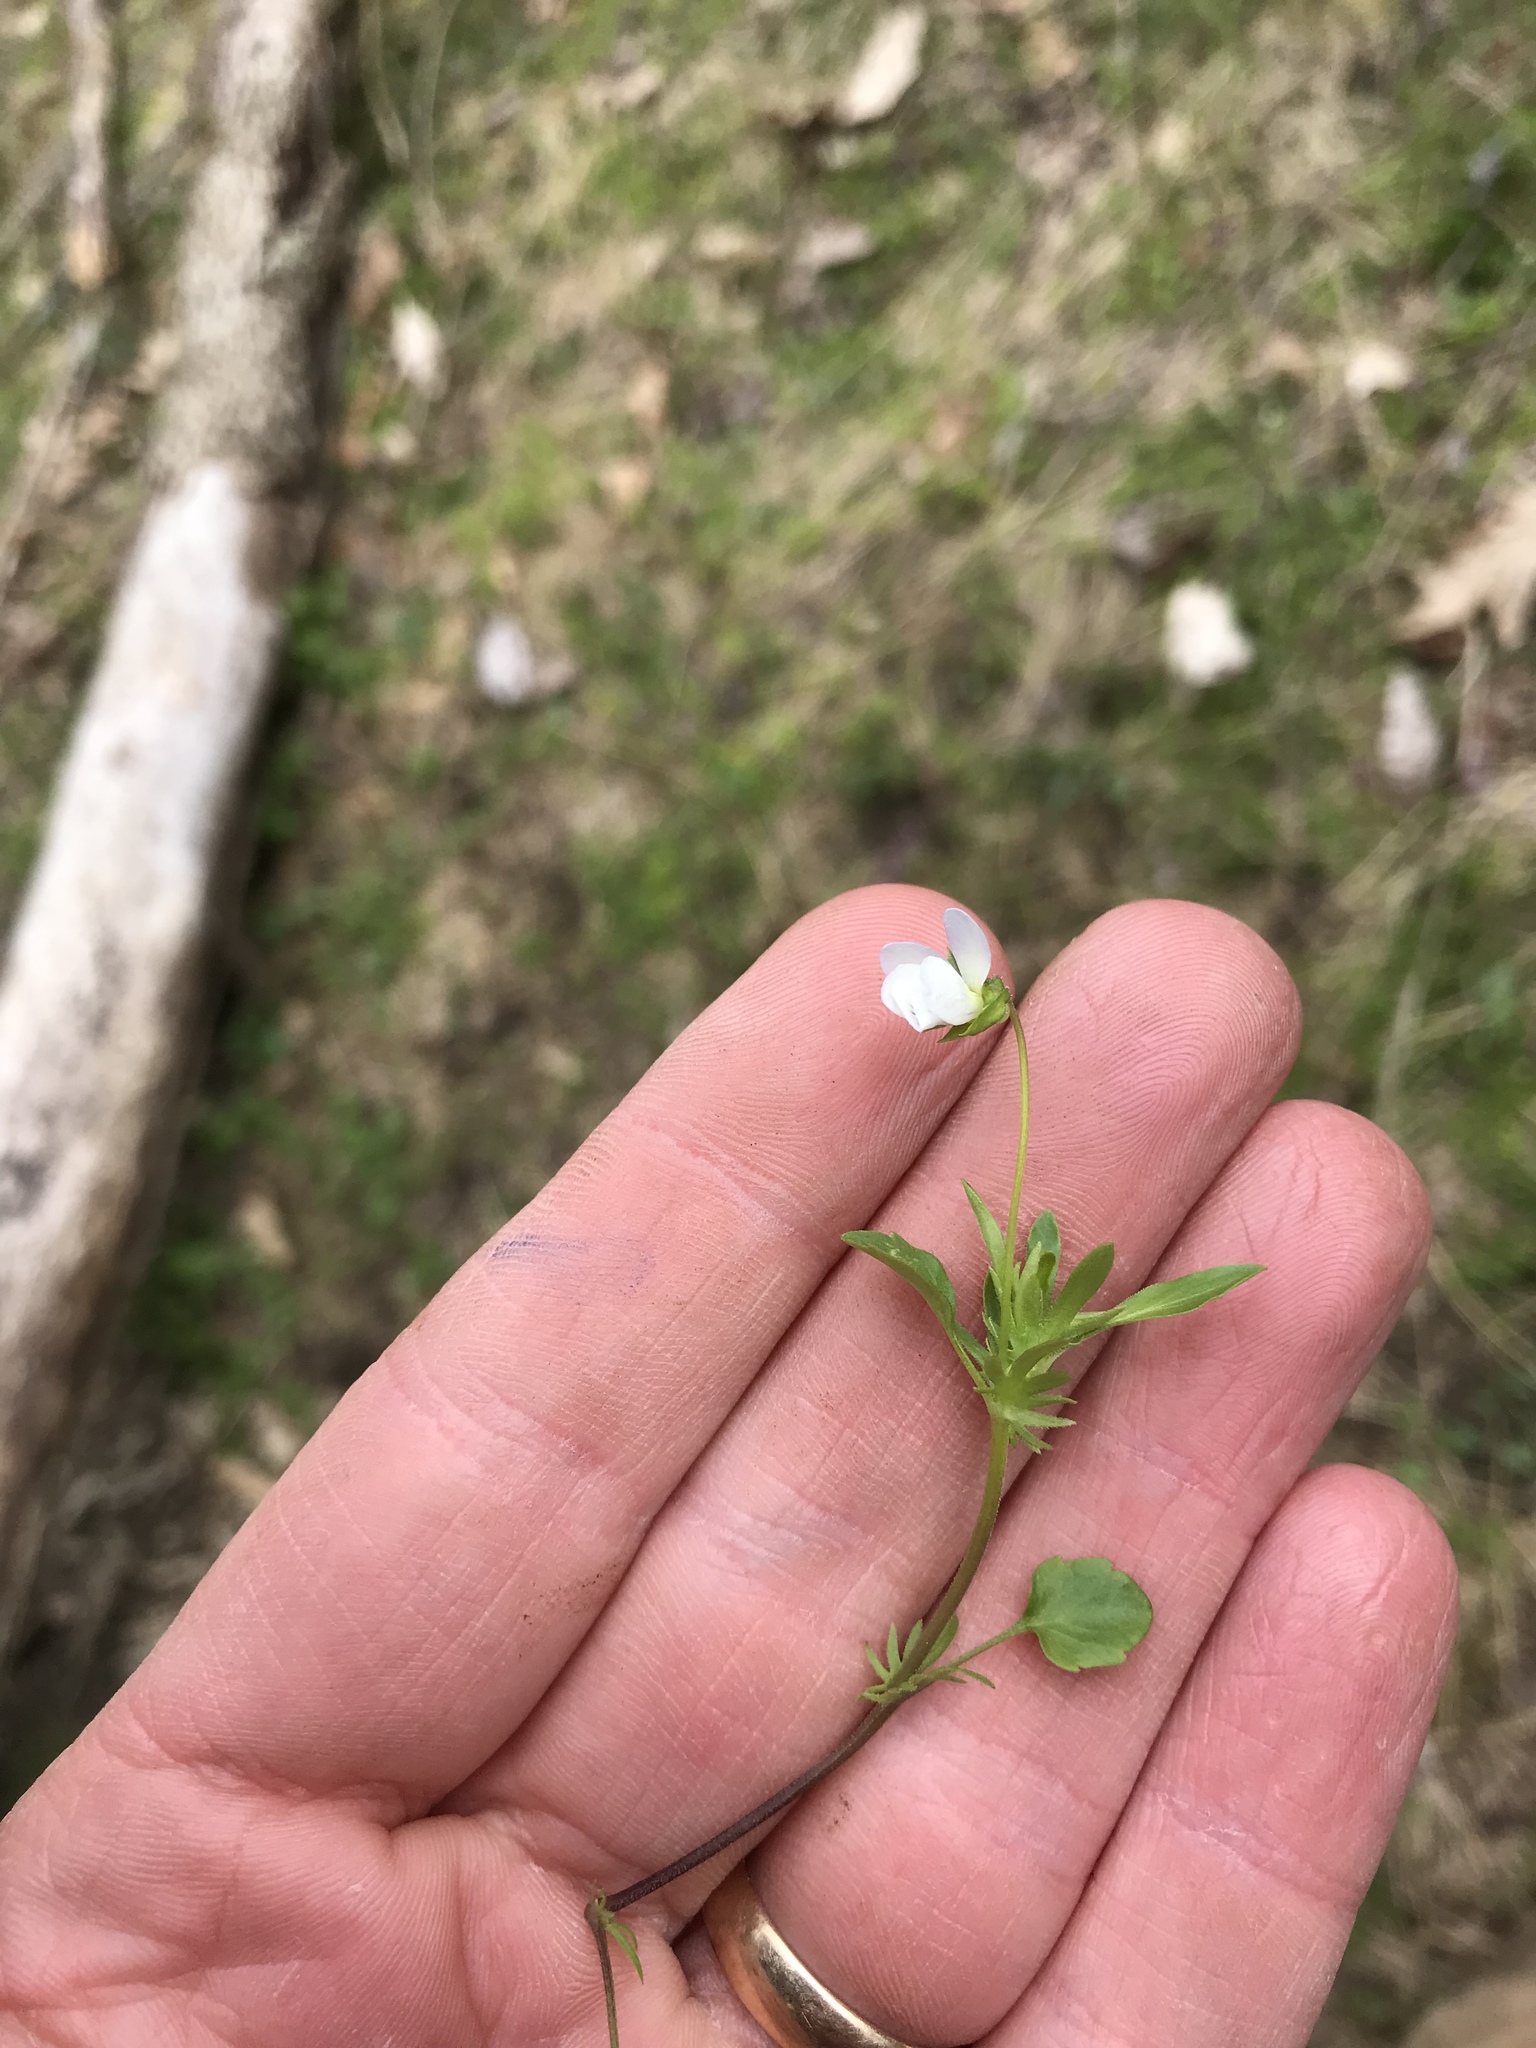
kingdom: Plantae
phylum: Tracheophyta
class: Magnoliopsida
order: Malpighiales
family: Violaceae
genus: Viola
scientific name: Viola rafinesquei
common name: American field pansy
